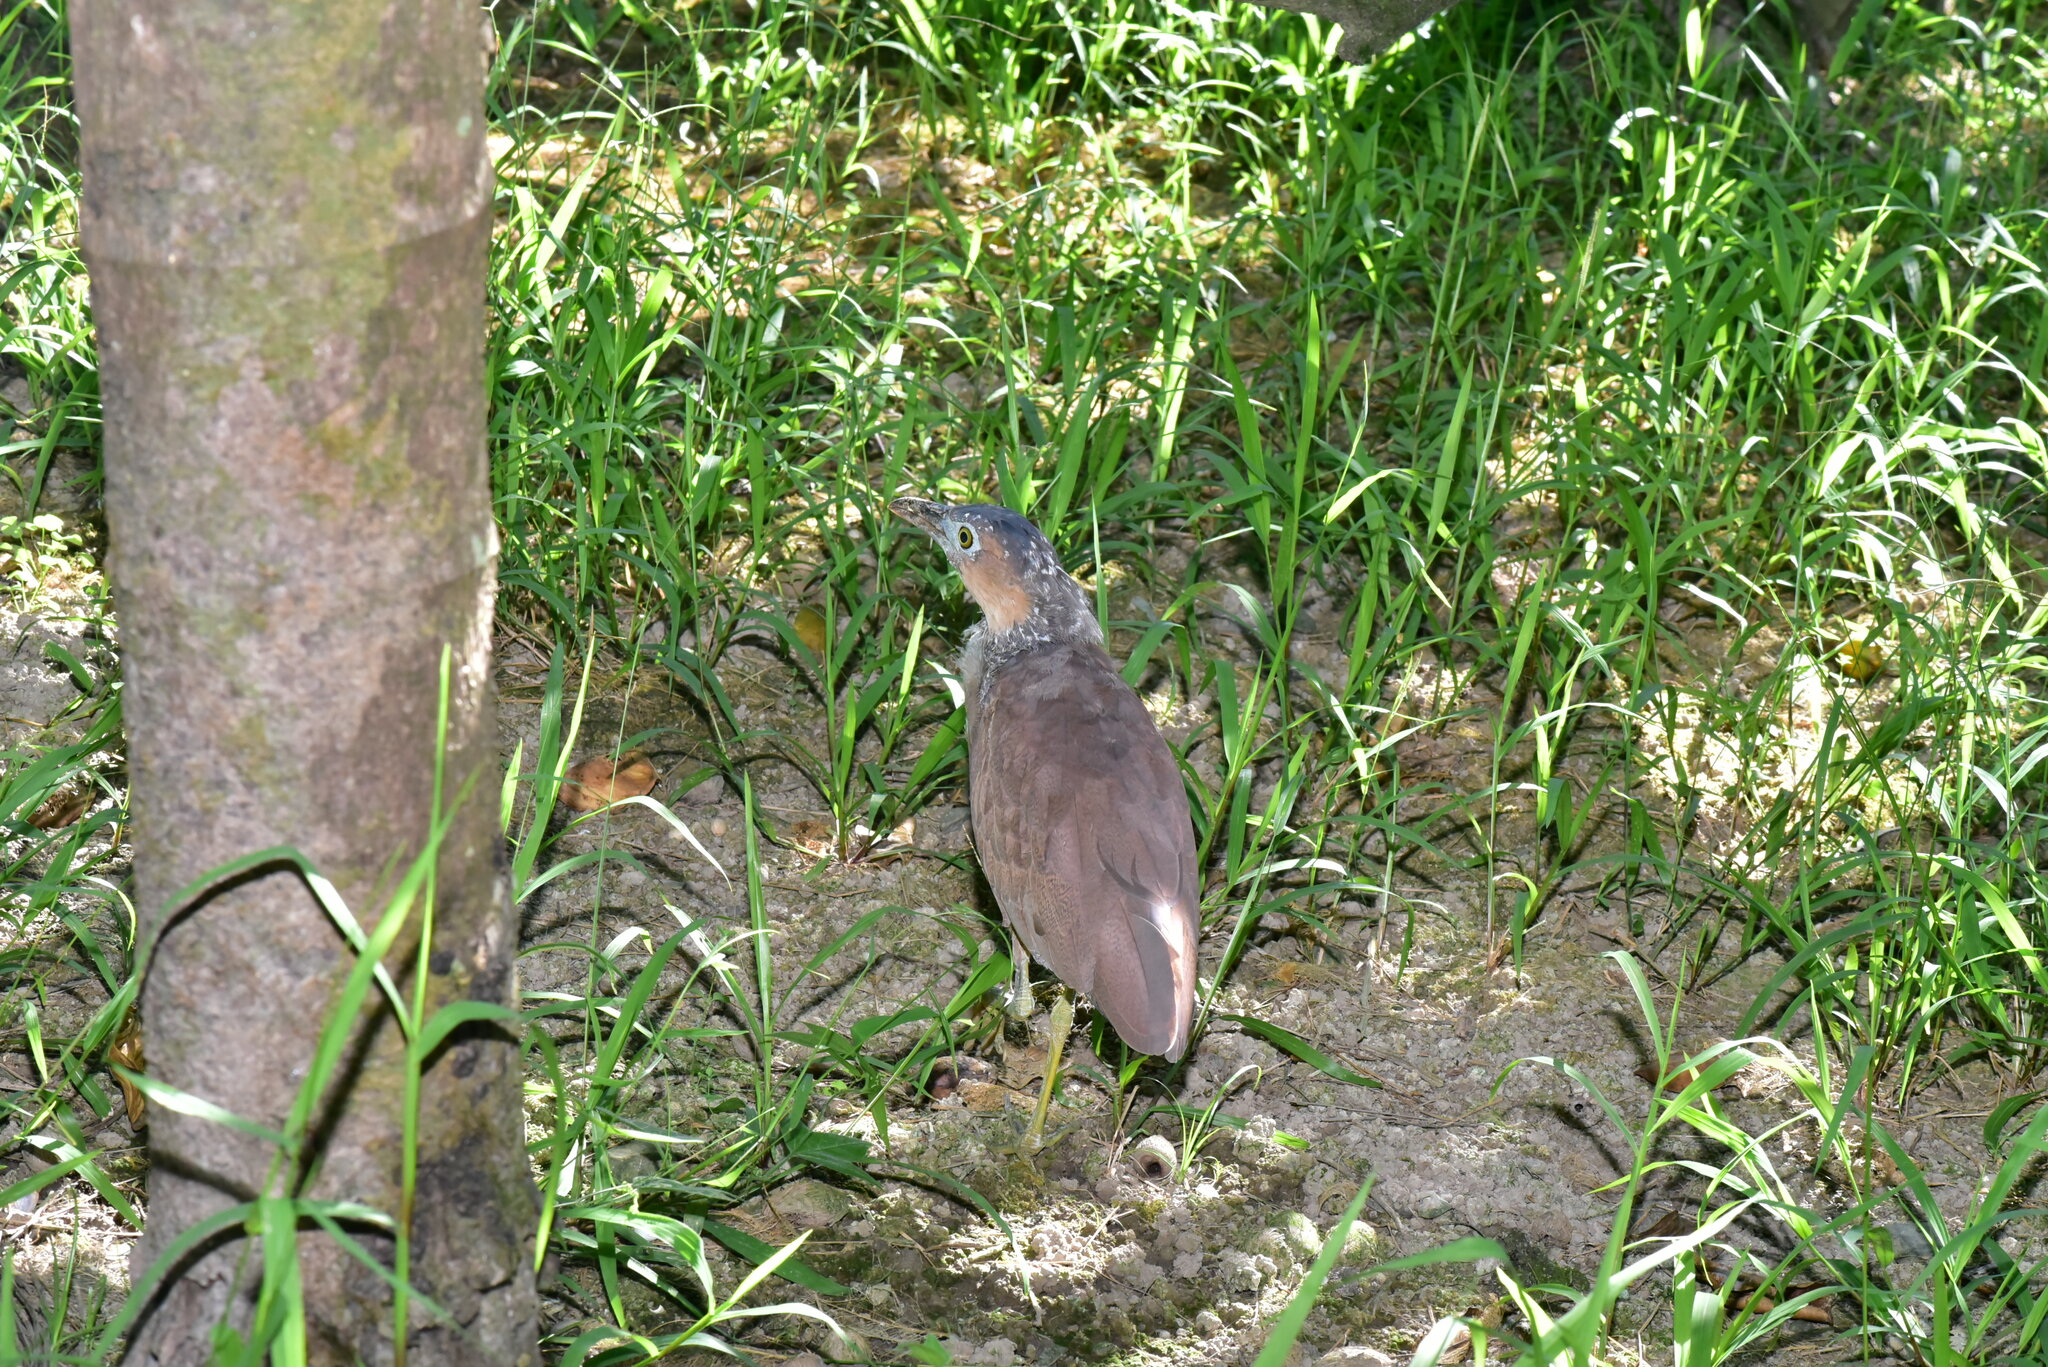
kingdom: Animalia
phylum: Chordata
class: Aves
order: Pelecaniformes
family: Ardeidae
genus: Gorsachius
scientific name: Gorsachius melanolophus
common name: Malayan night heron
